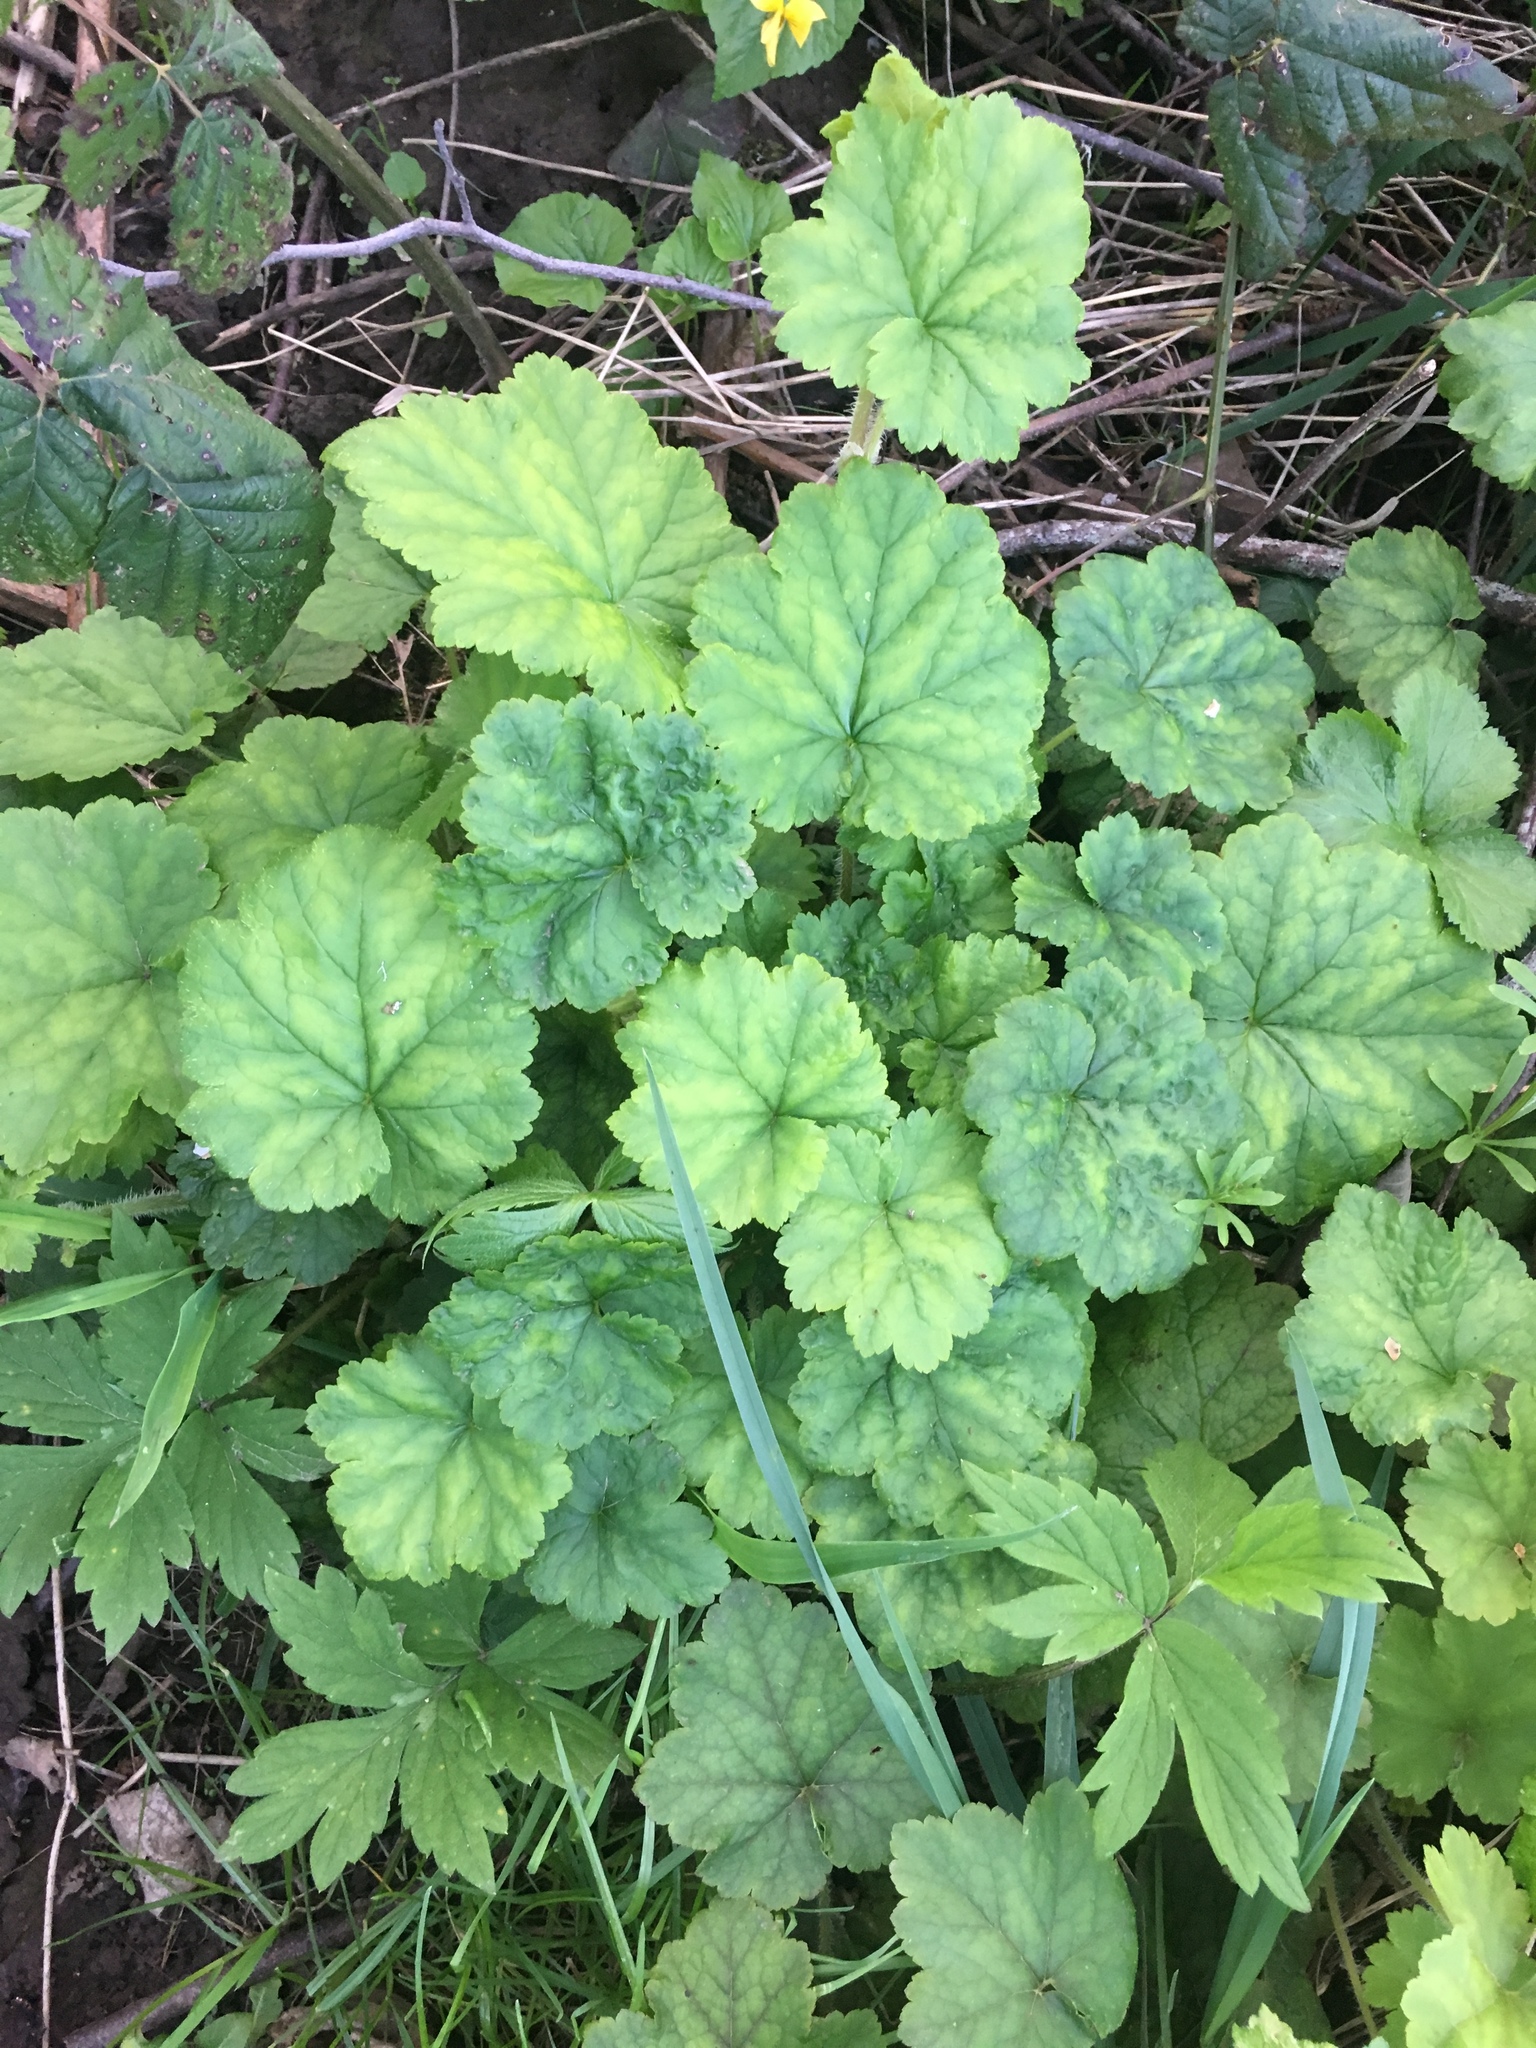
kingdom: Plantae
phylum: Tracheophyta
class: Magnoliopsida
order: Saxifragales
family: Saxifragaceae
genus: Tellima
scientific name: Tellima grandiflora
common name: Fringecups
